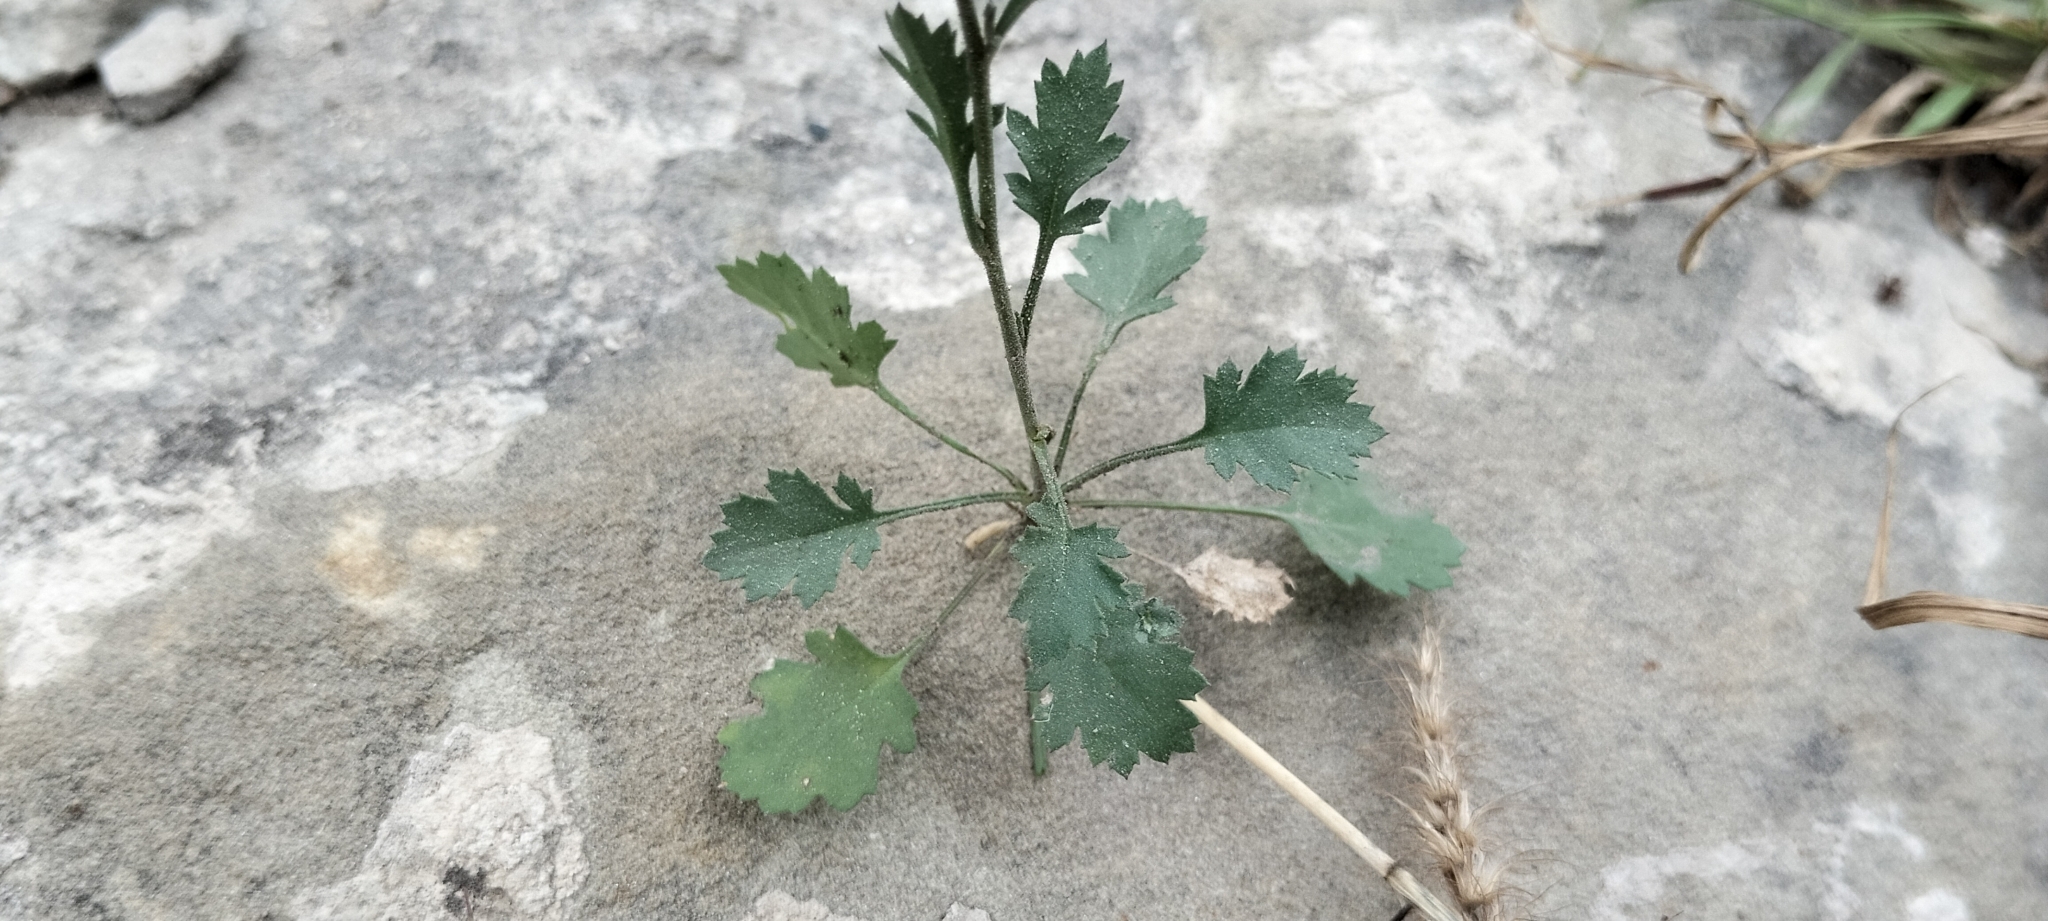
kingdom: Plantae
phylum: Tracheophyta
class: Magnoliopsida
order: Ericales
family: Polemoniaceae
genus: Giliastrum
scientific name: Giliastrum incisum
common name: Splitleaf gilia
